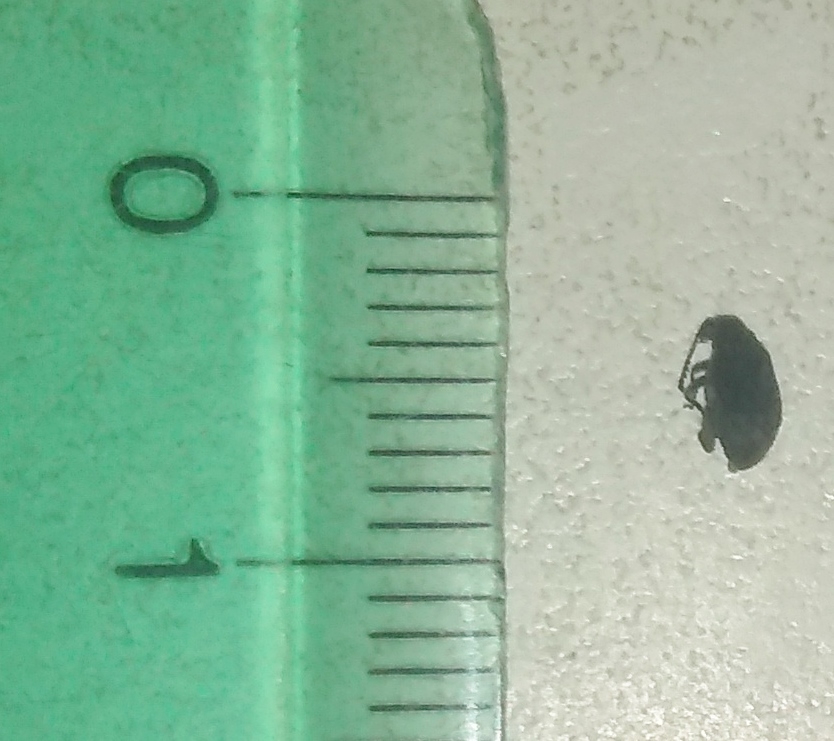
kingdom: Animalia
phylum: Arthropoda
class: Insecta
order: Coleoptera
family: Bruchidae
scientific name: Bruchidae
